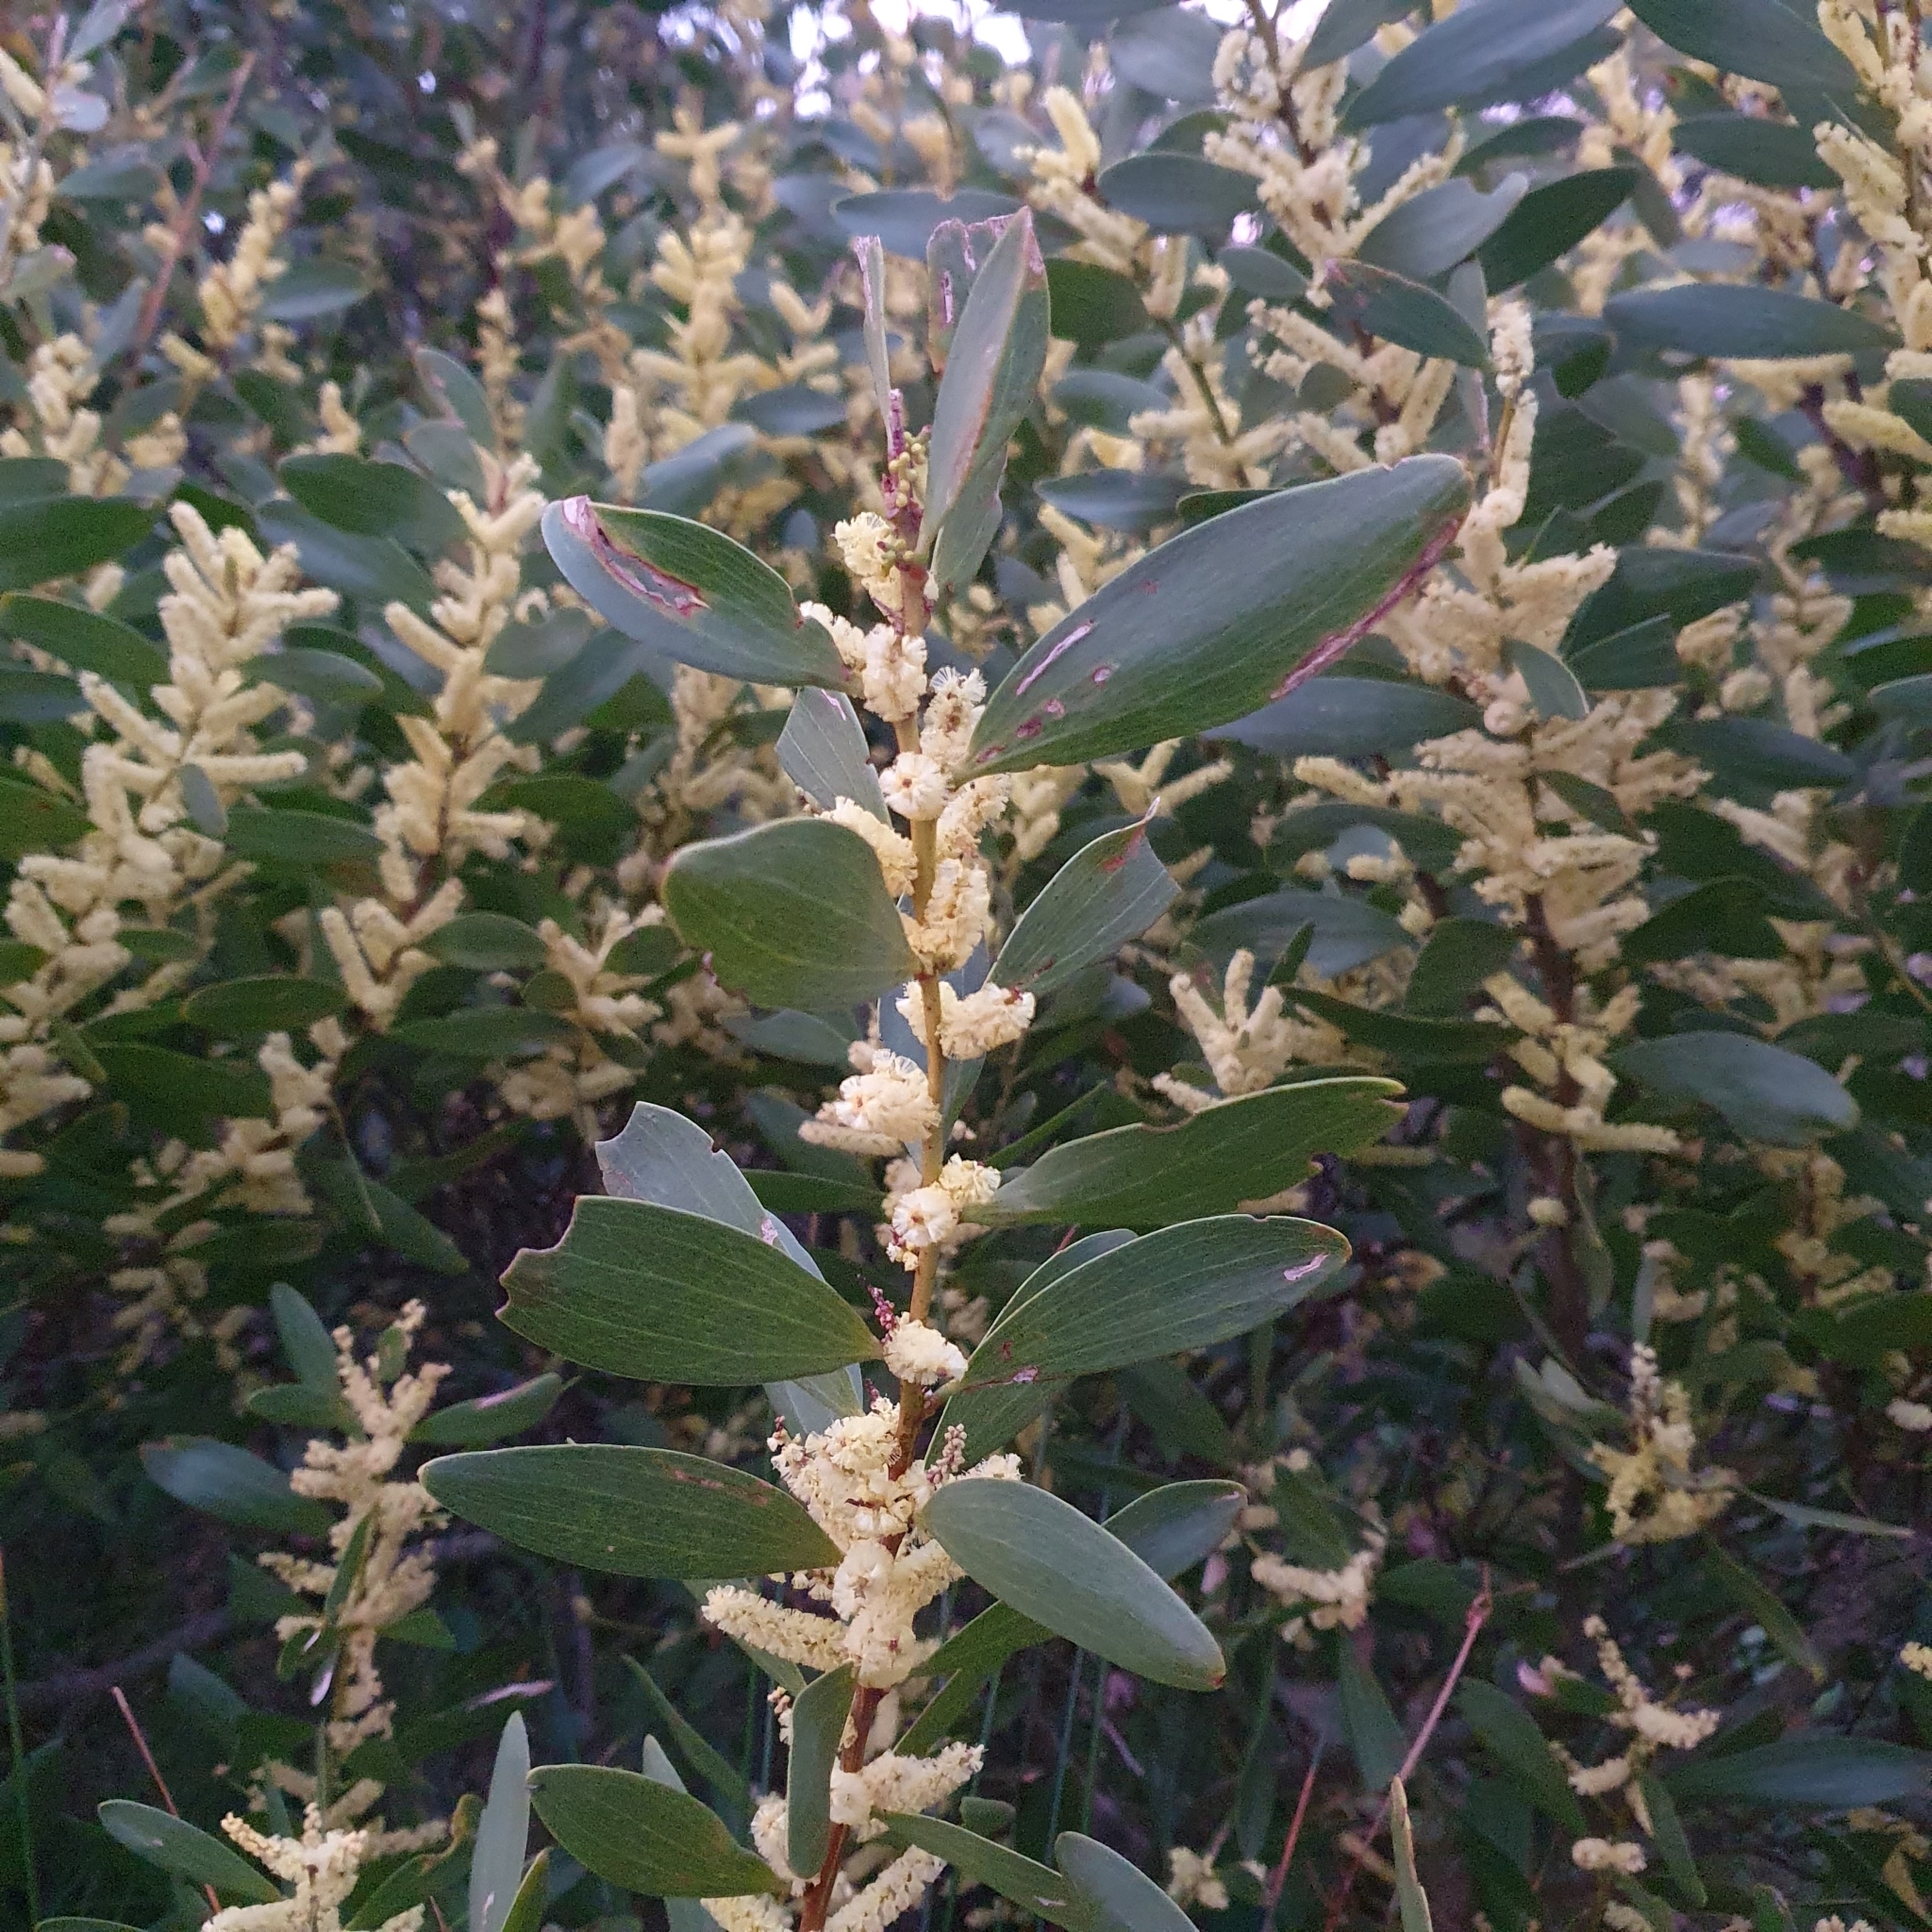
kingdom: Plantae
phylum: Tracheophyta
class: Magnoliopsida
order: Fabales
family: Fabaceae
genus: Acacia
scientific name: Acacia longifolia
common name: Sydney golden wattle
